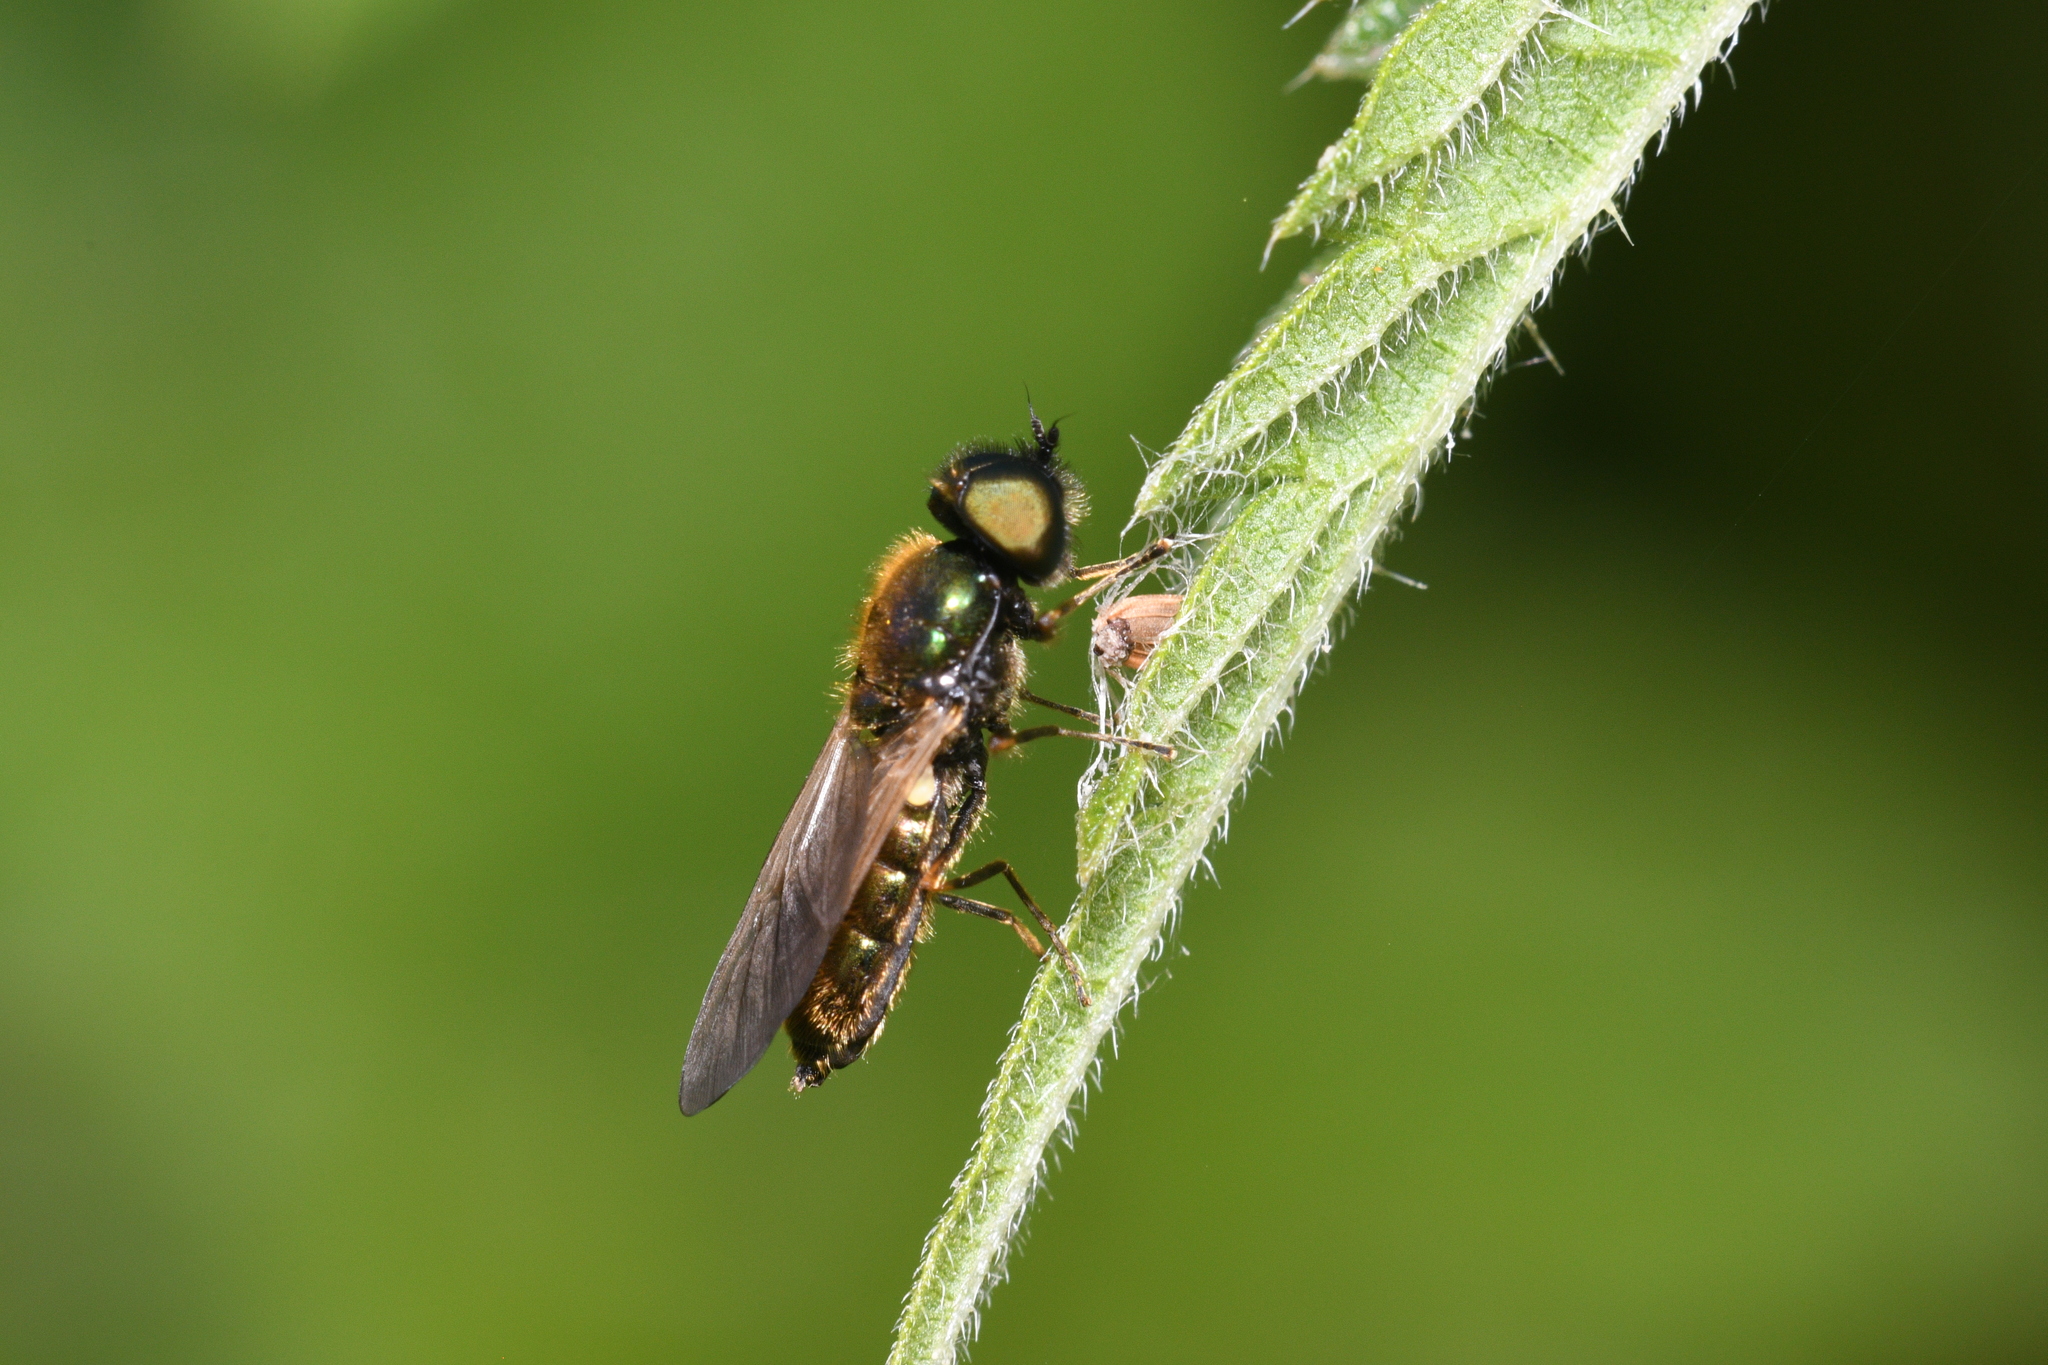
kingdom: Animalia
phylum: Arthropoda
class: Insecta
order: Diptera
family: Stratiomyidae
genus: Chloromyia
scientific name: Chloromyia formosa
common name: Soldier fly
